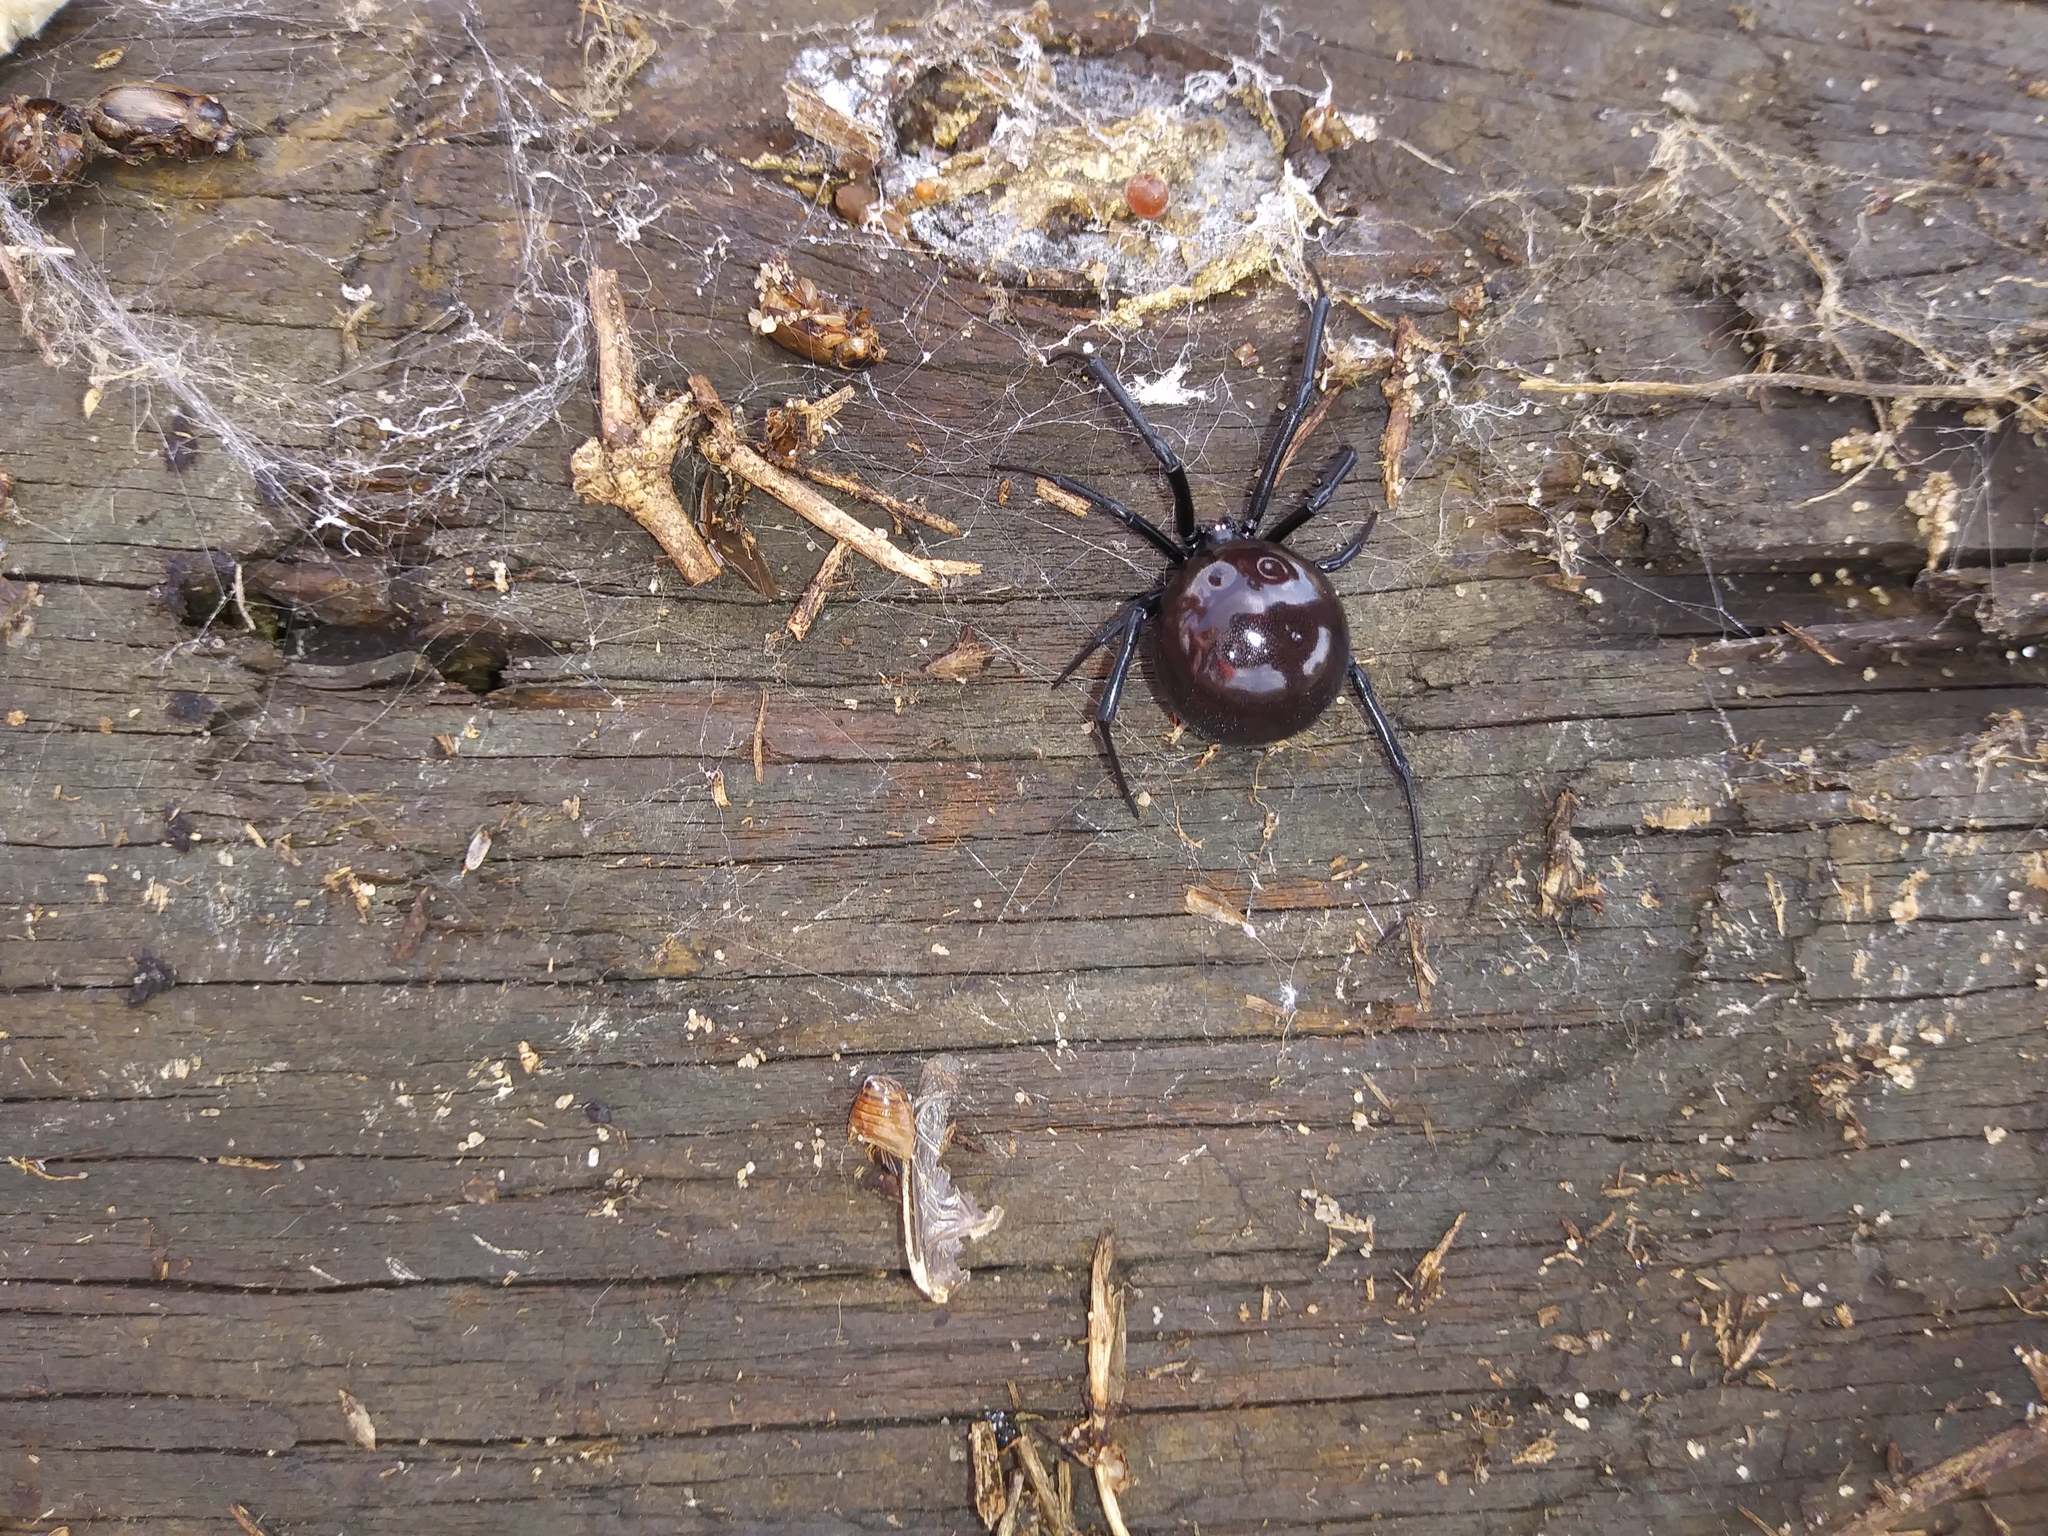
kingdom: Animalia
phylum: Arthropoda
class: Arachnida
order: Araneae
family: Theridiidae
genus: Latrodectus
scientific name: Latrodectus mactans
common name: Cobweb spiders
